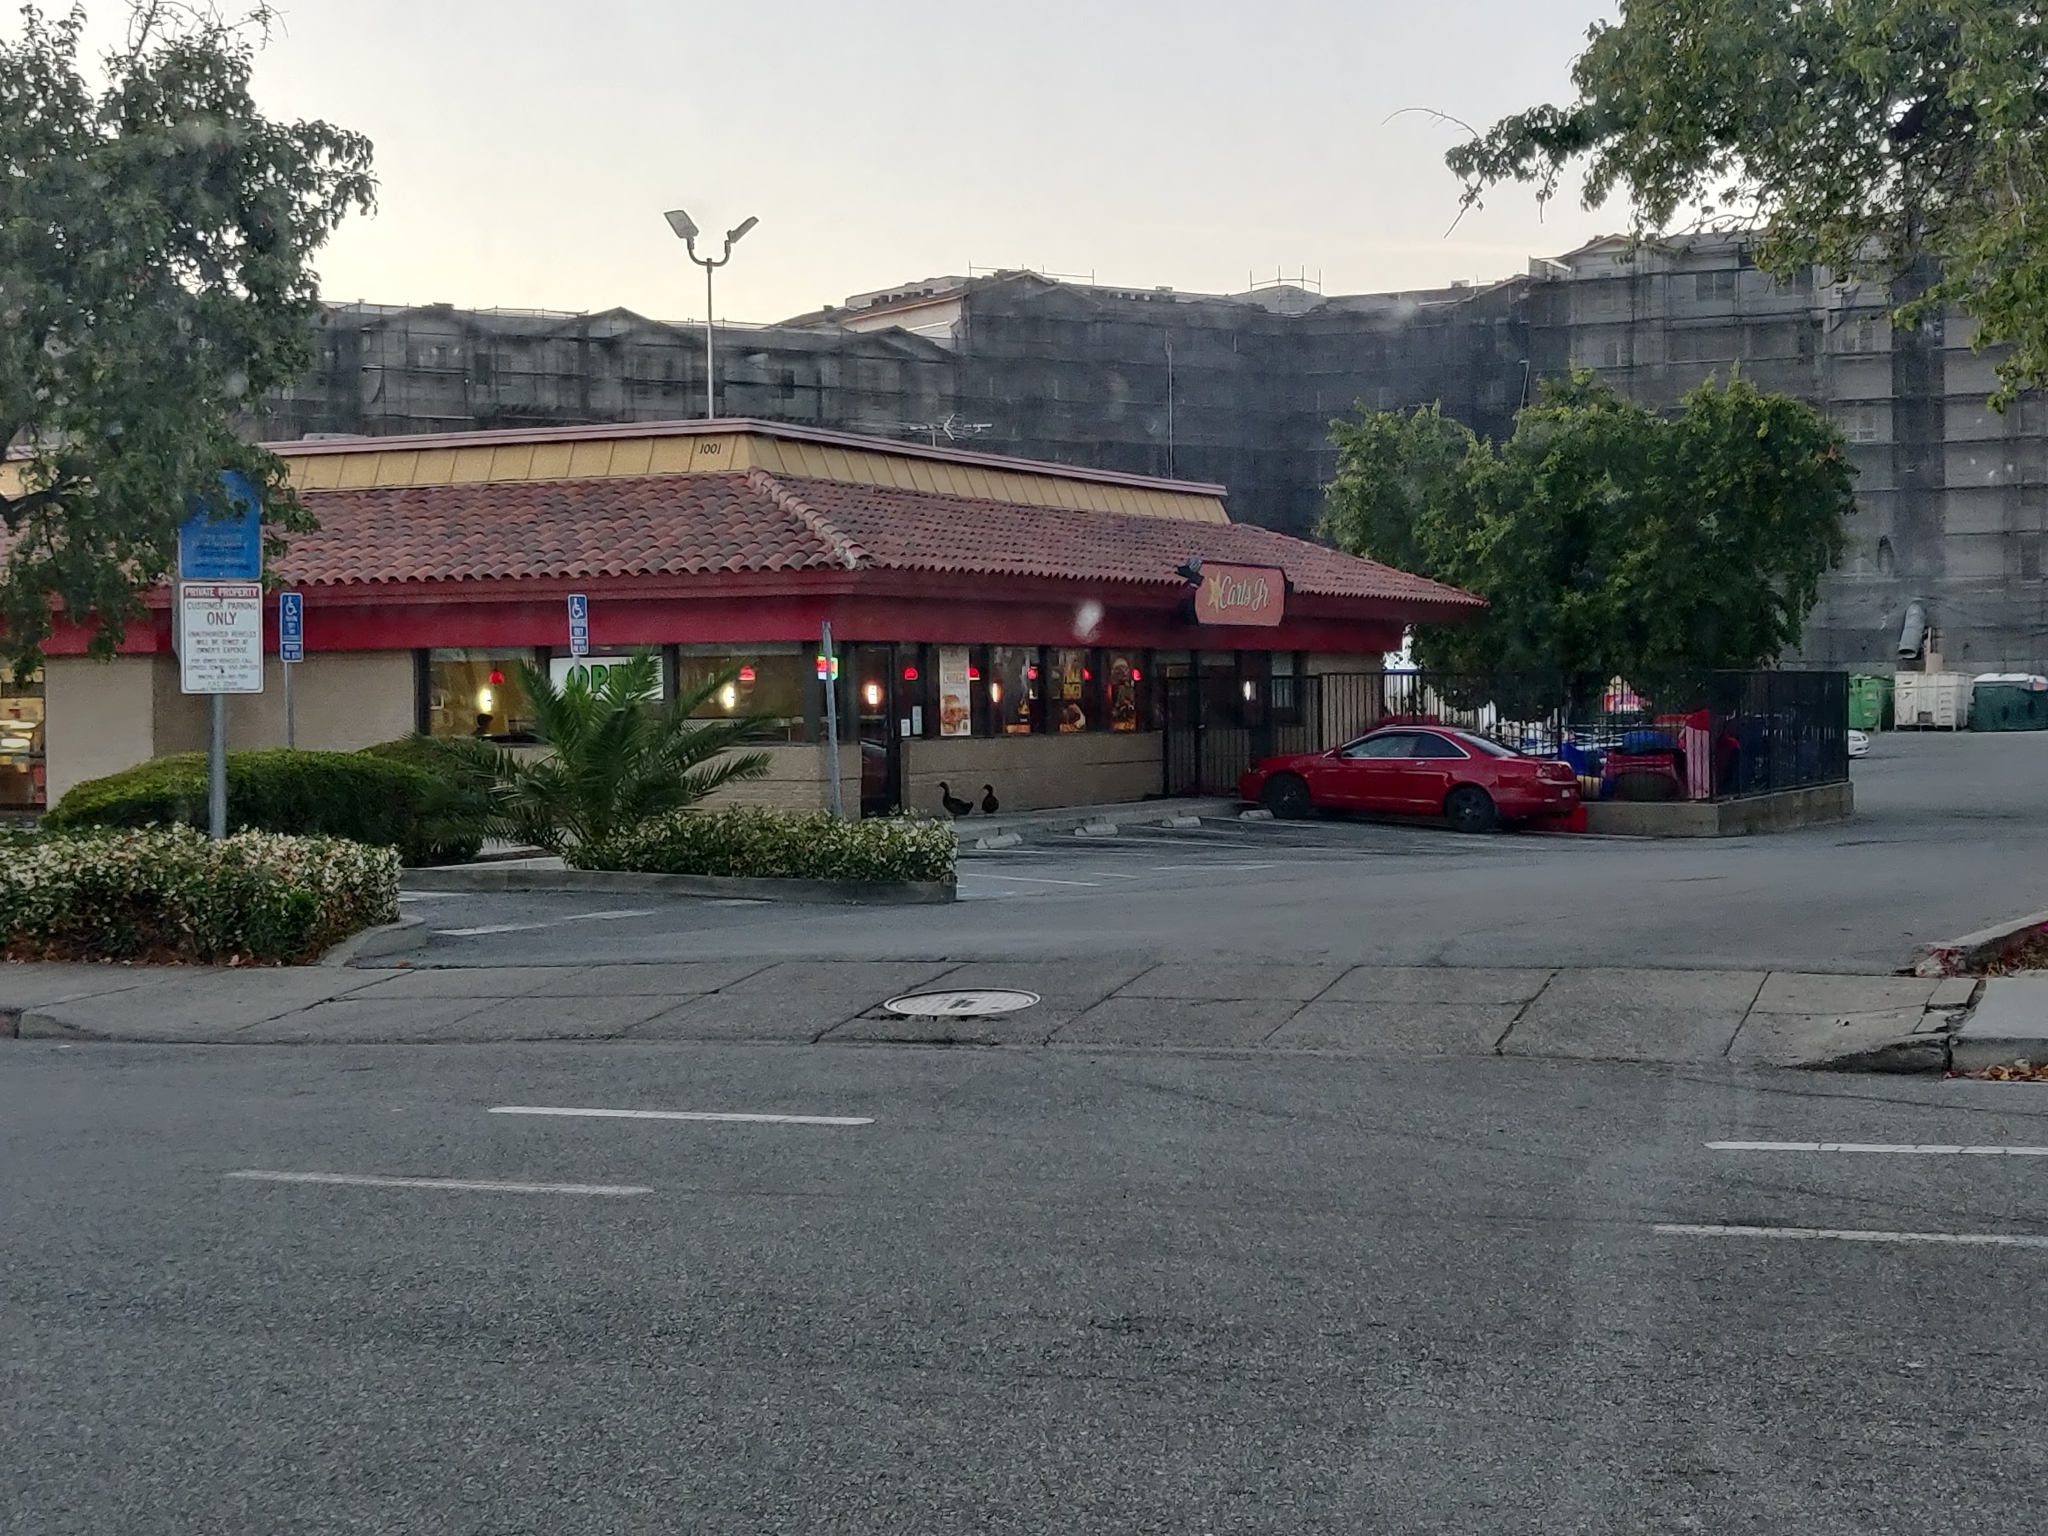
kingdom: Animalia
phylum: Chordata
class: Aves
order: Anseriformes
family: Anatidae
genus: Anas
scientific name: Anas platyrhynchos
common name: Mallard
